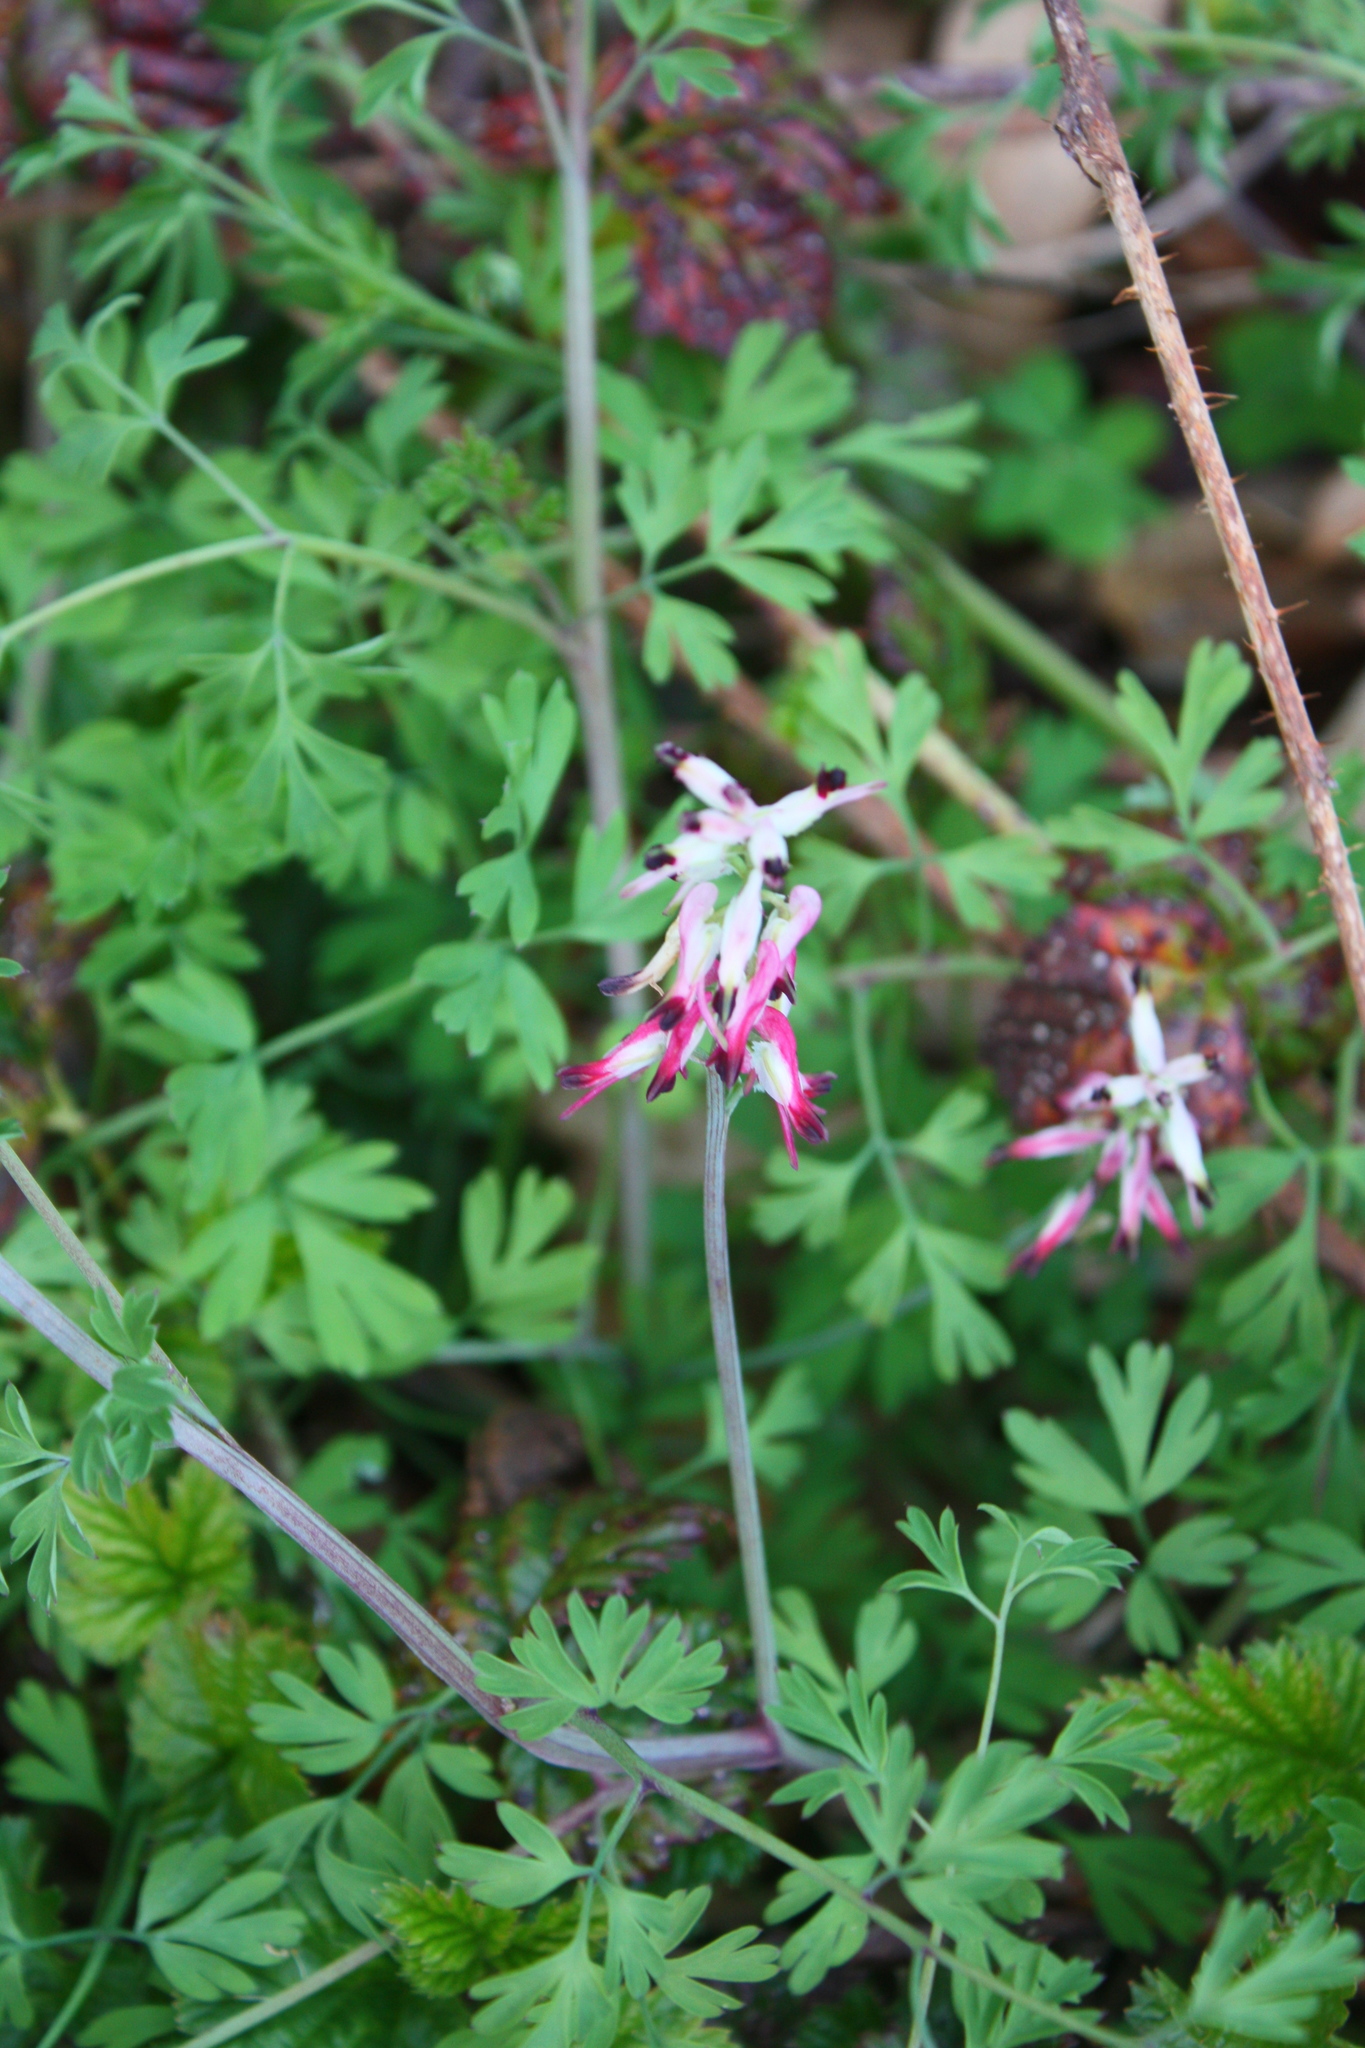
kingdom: Plantae
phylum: Tracheophyta
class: Magnoliopsida
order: Ranunculales
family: Papaveraceae
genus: Fumaria
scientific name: Fumaria capreolata
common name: White ramping-fumitory
